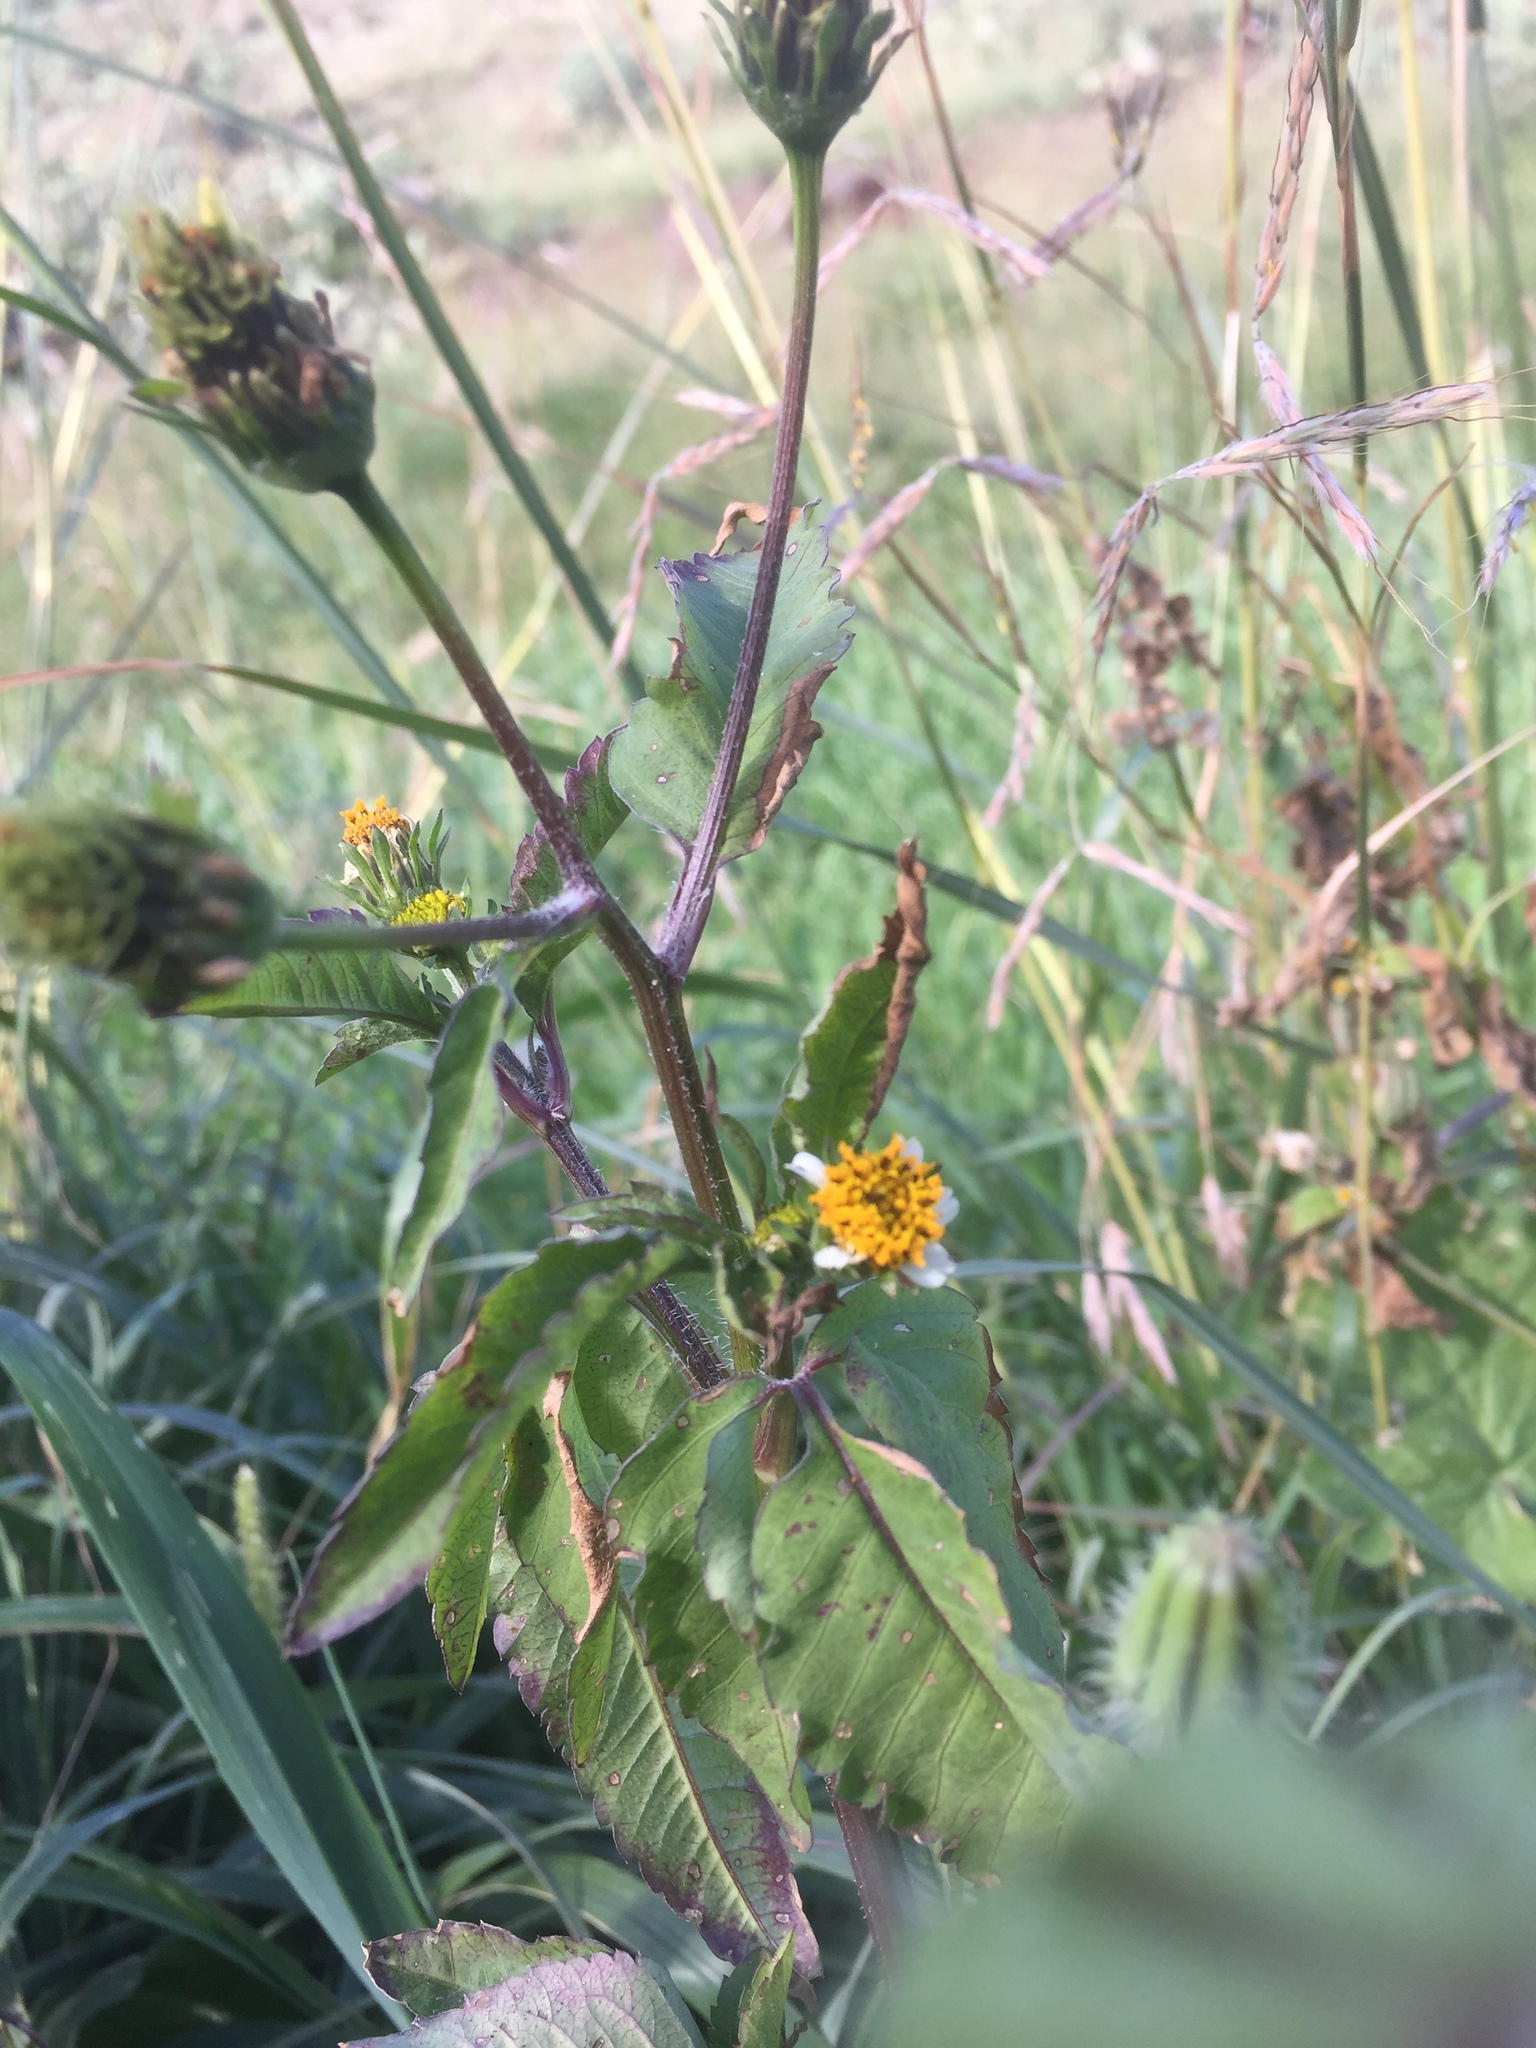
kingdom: Plantae
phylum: Tracheophyta
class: Magnoliopsida
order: Asterales
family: Asteraceae
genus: Bidens
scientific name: Bidens pilosa
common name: Black-jack
